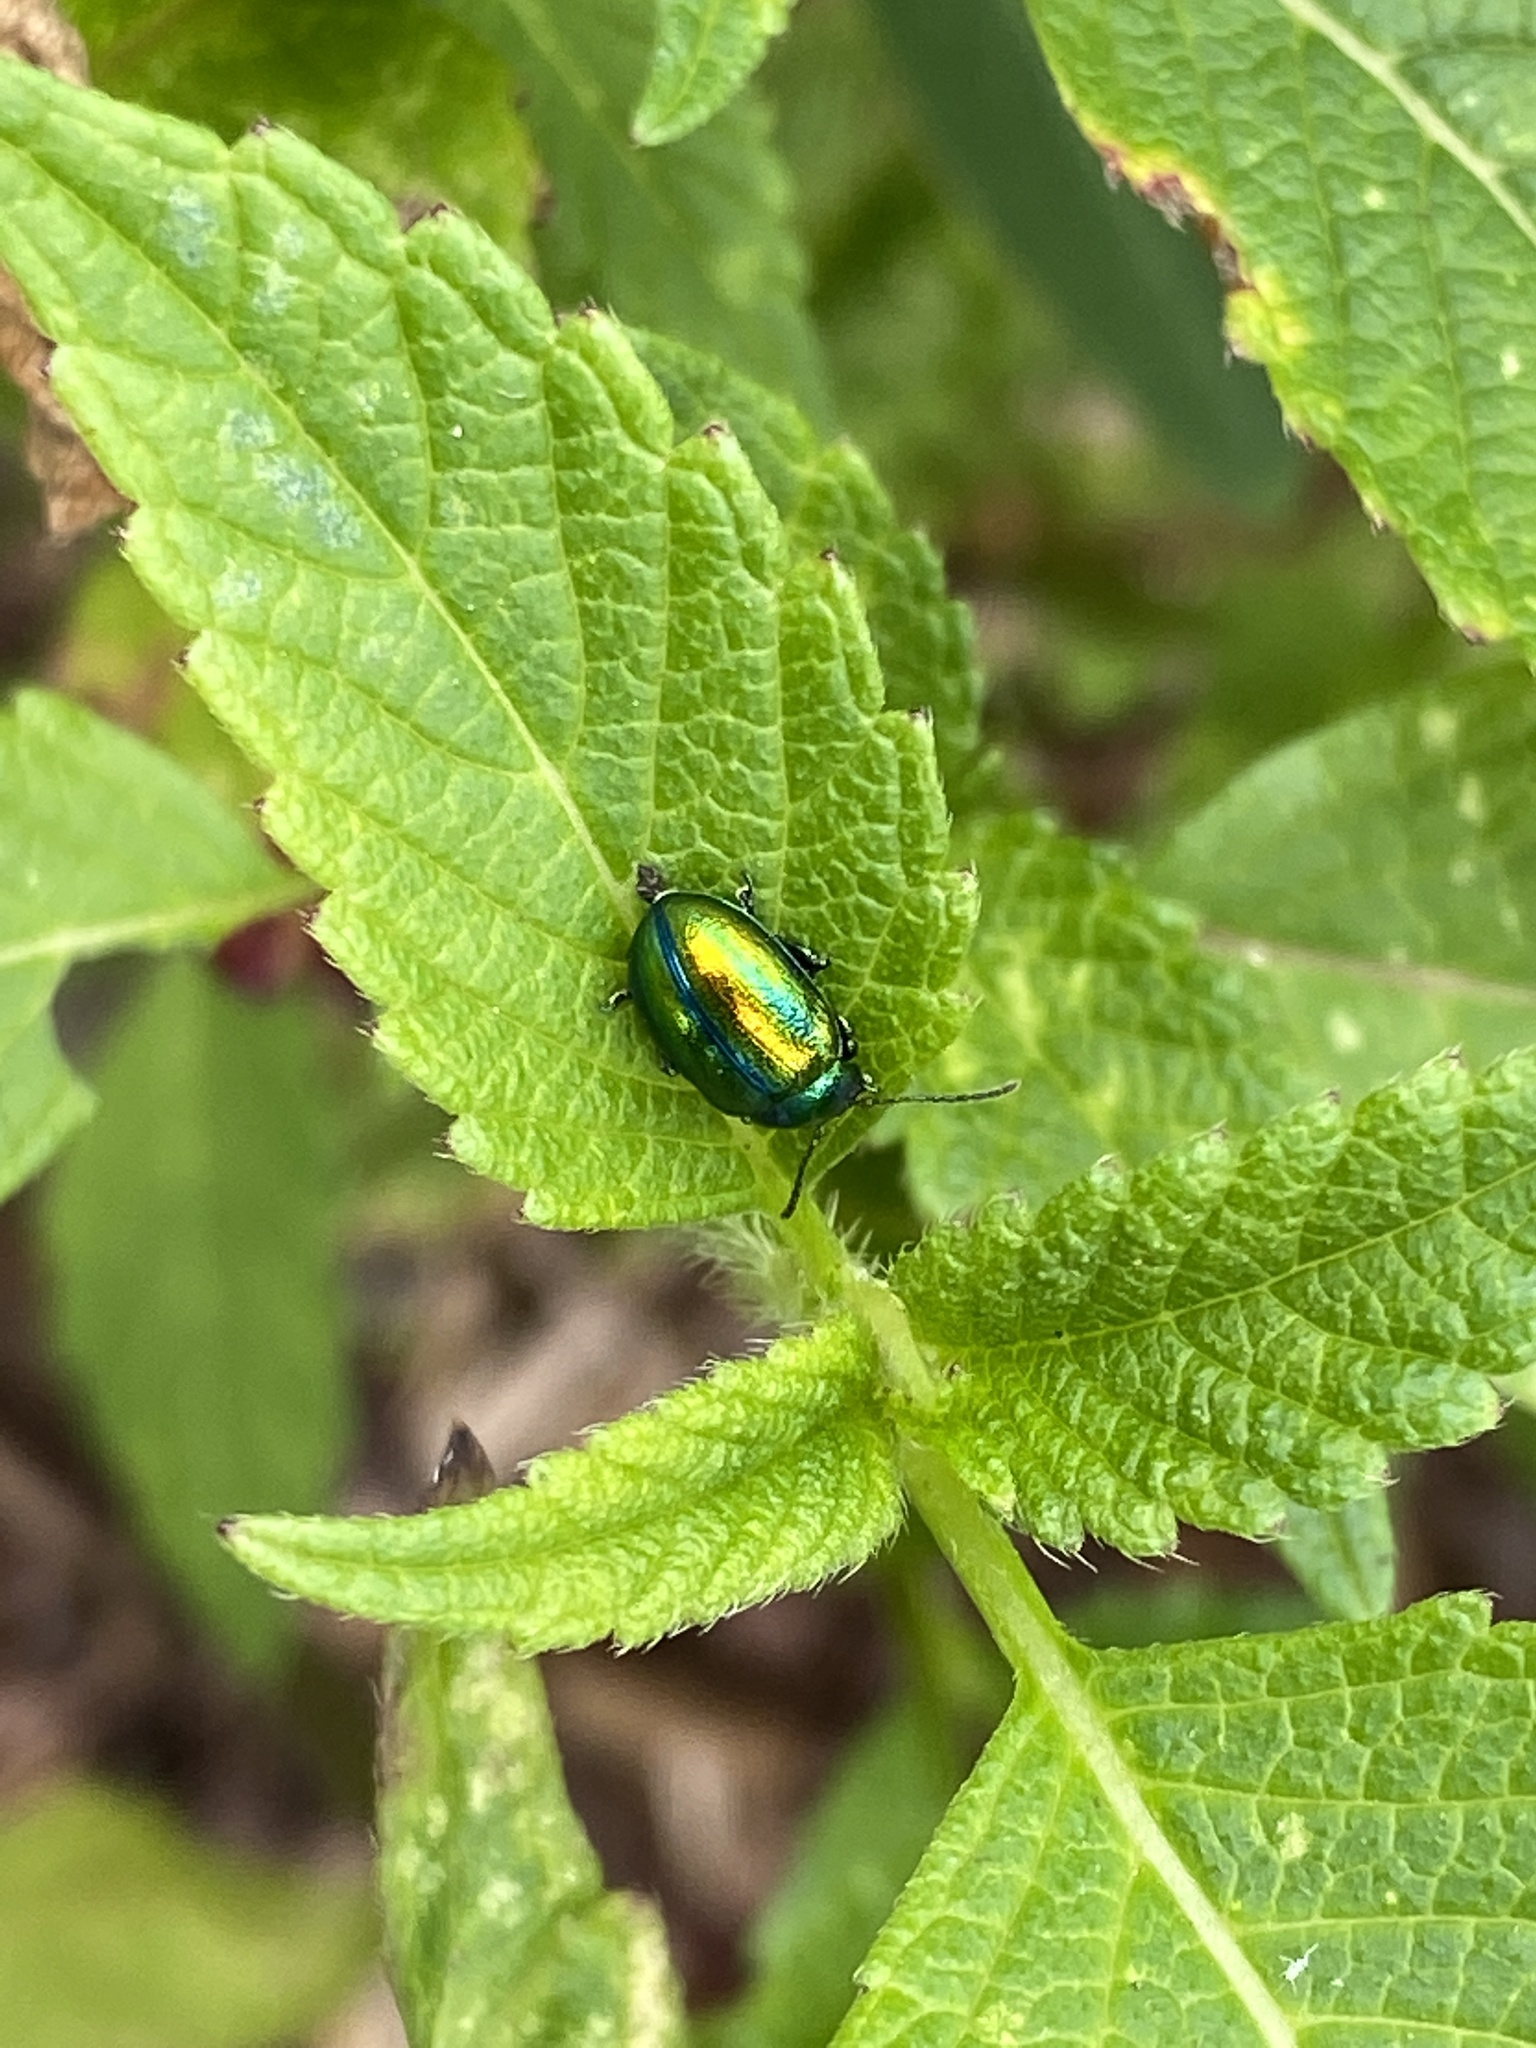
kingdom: Animalia
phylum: Arthropoda
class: Insecta
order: Coleoptera
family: Chrysomelidae
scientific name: Chrysomelidae
